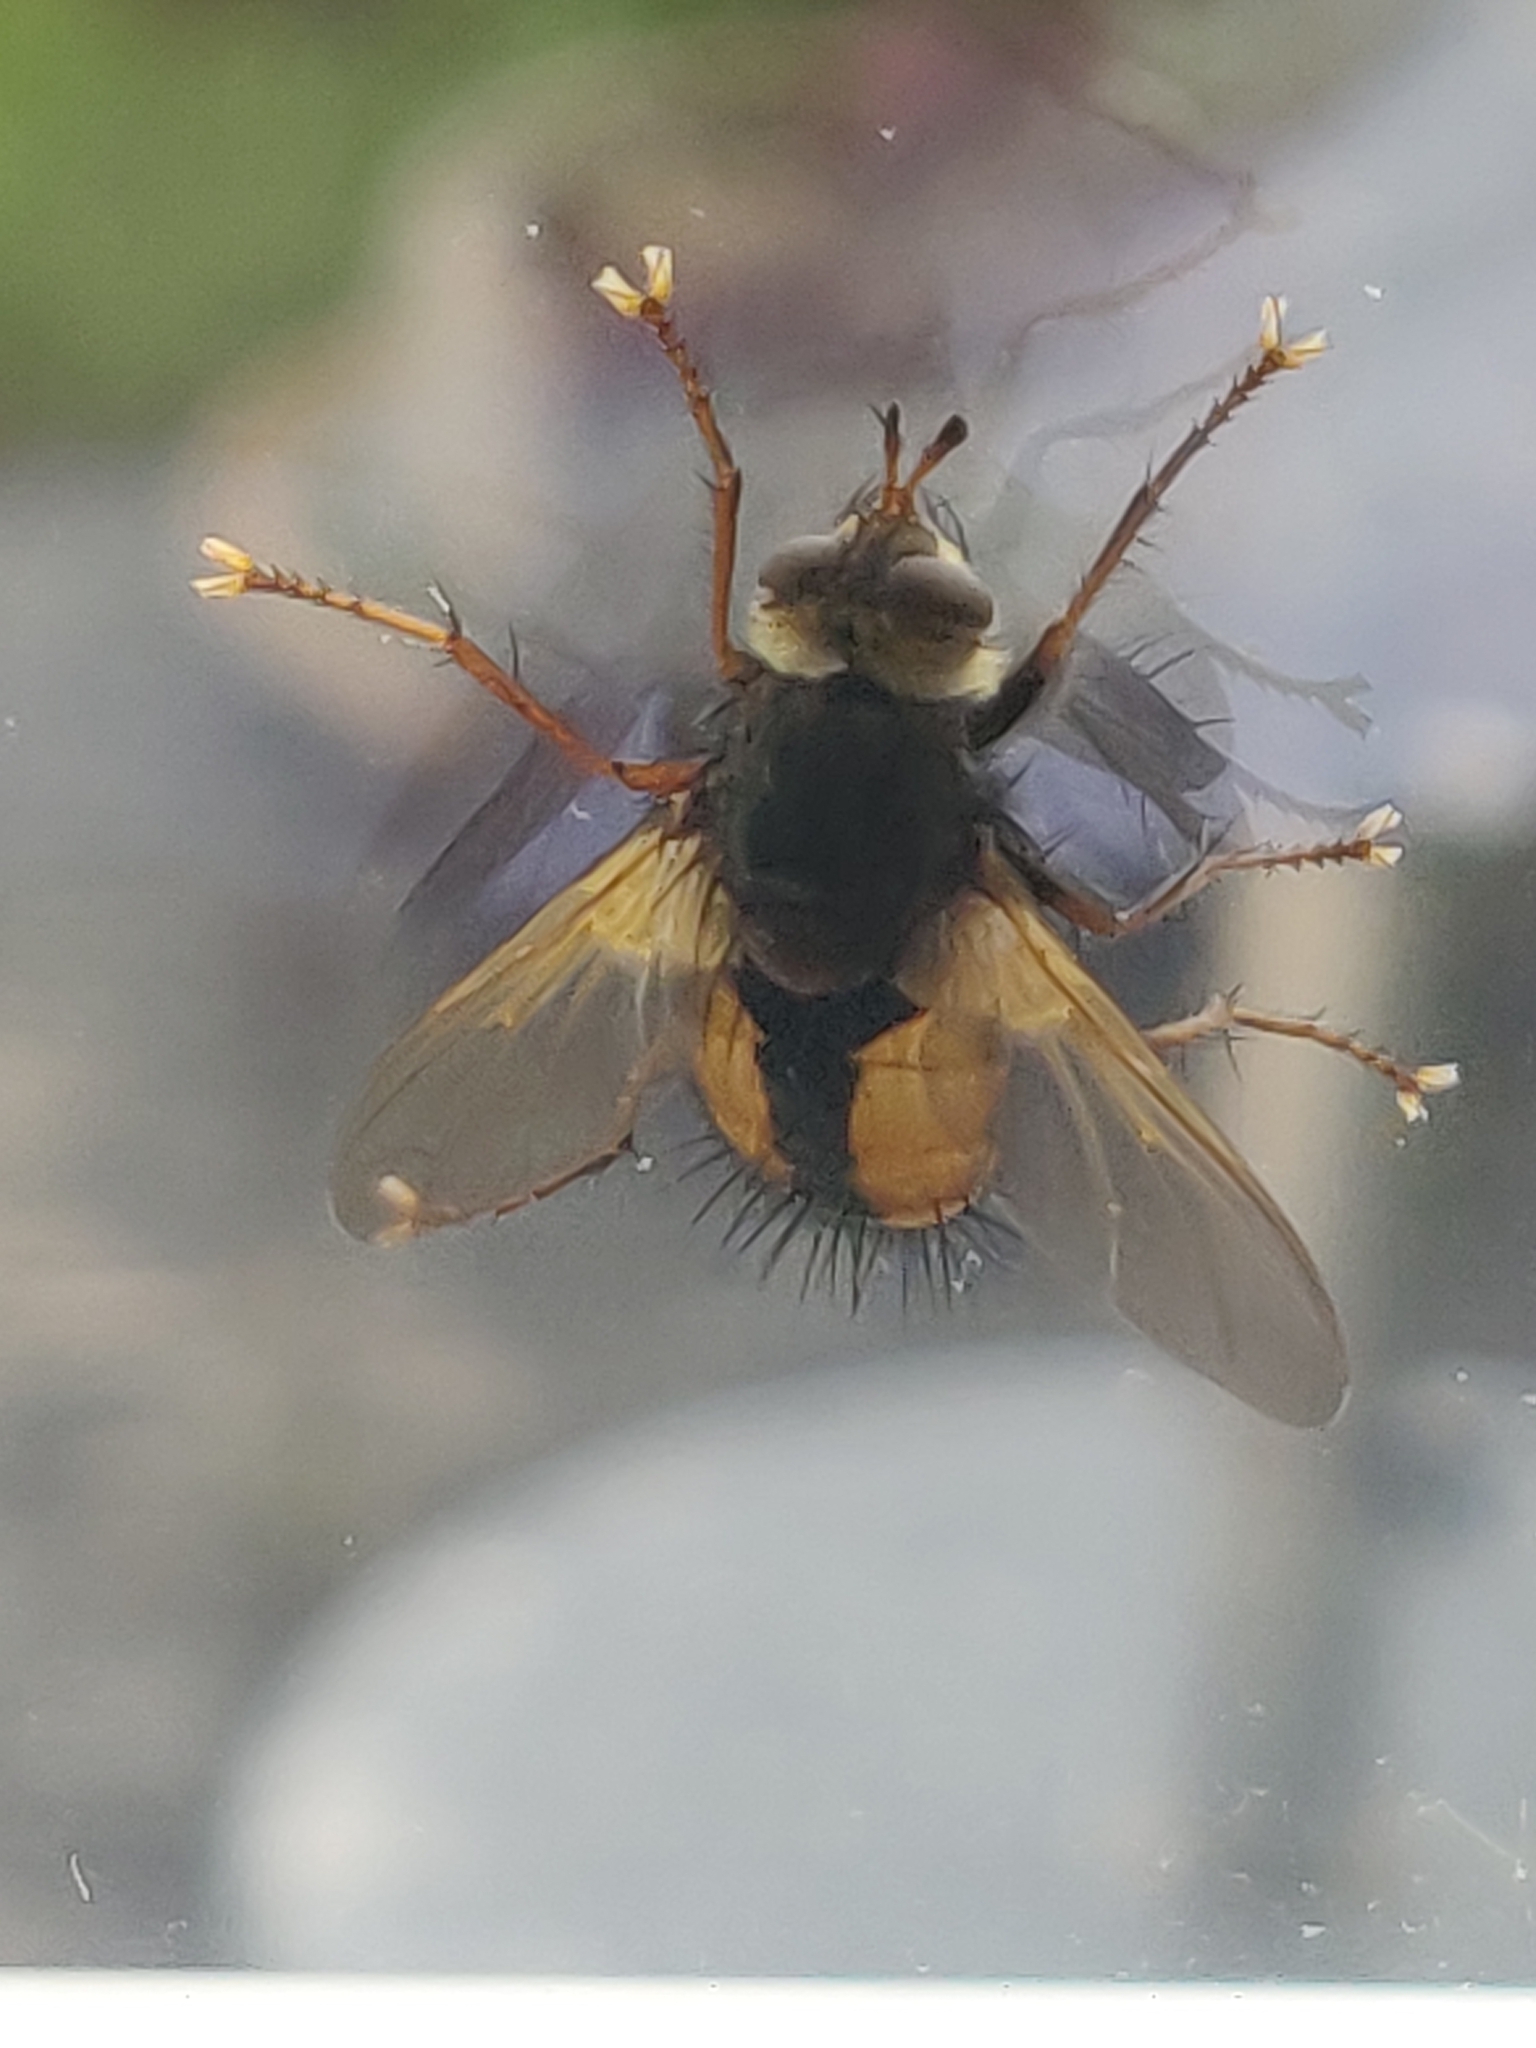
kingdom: Animalia
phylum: Arthropoda
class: Insecta
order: Diptera
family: Tachinidae
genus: Tachina
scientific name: Tachina fera
